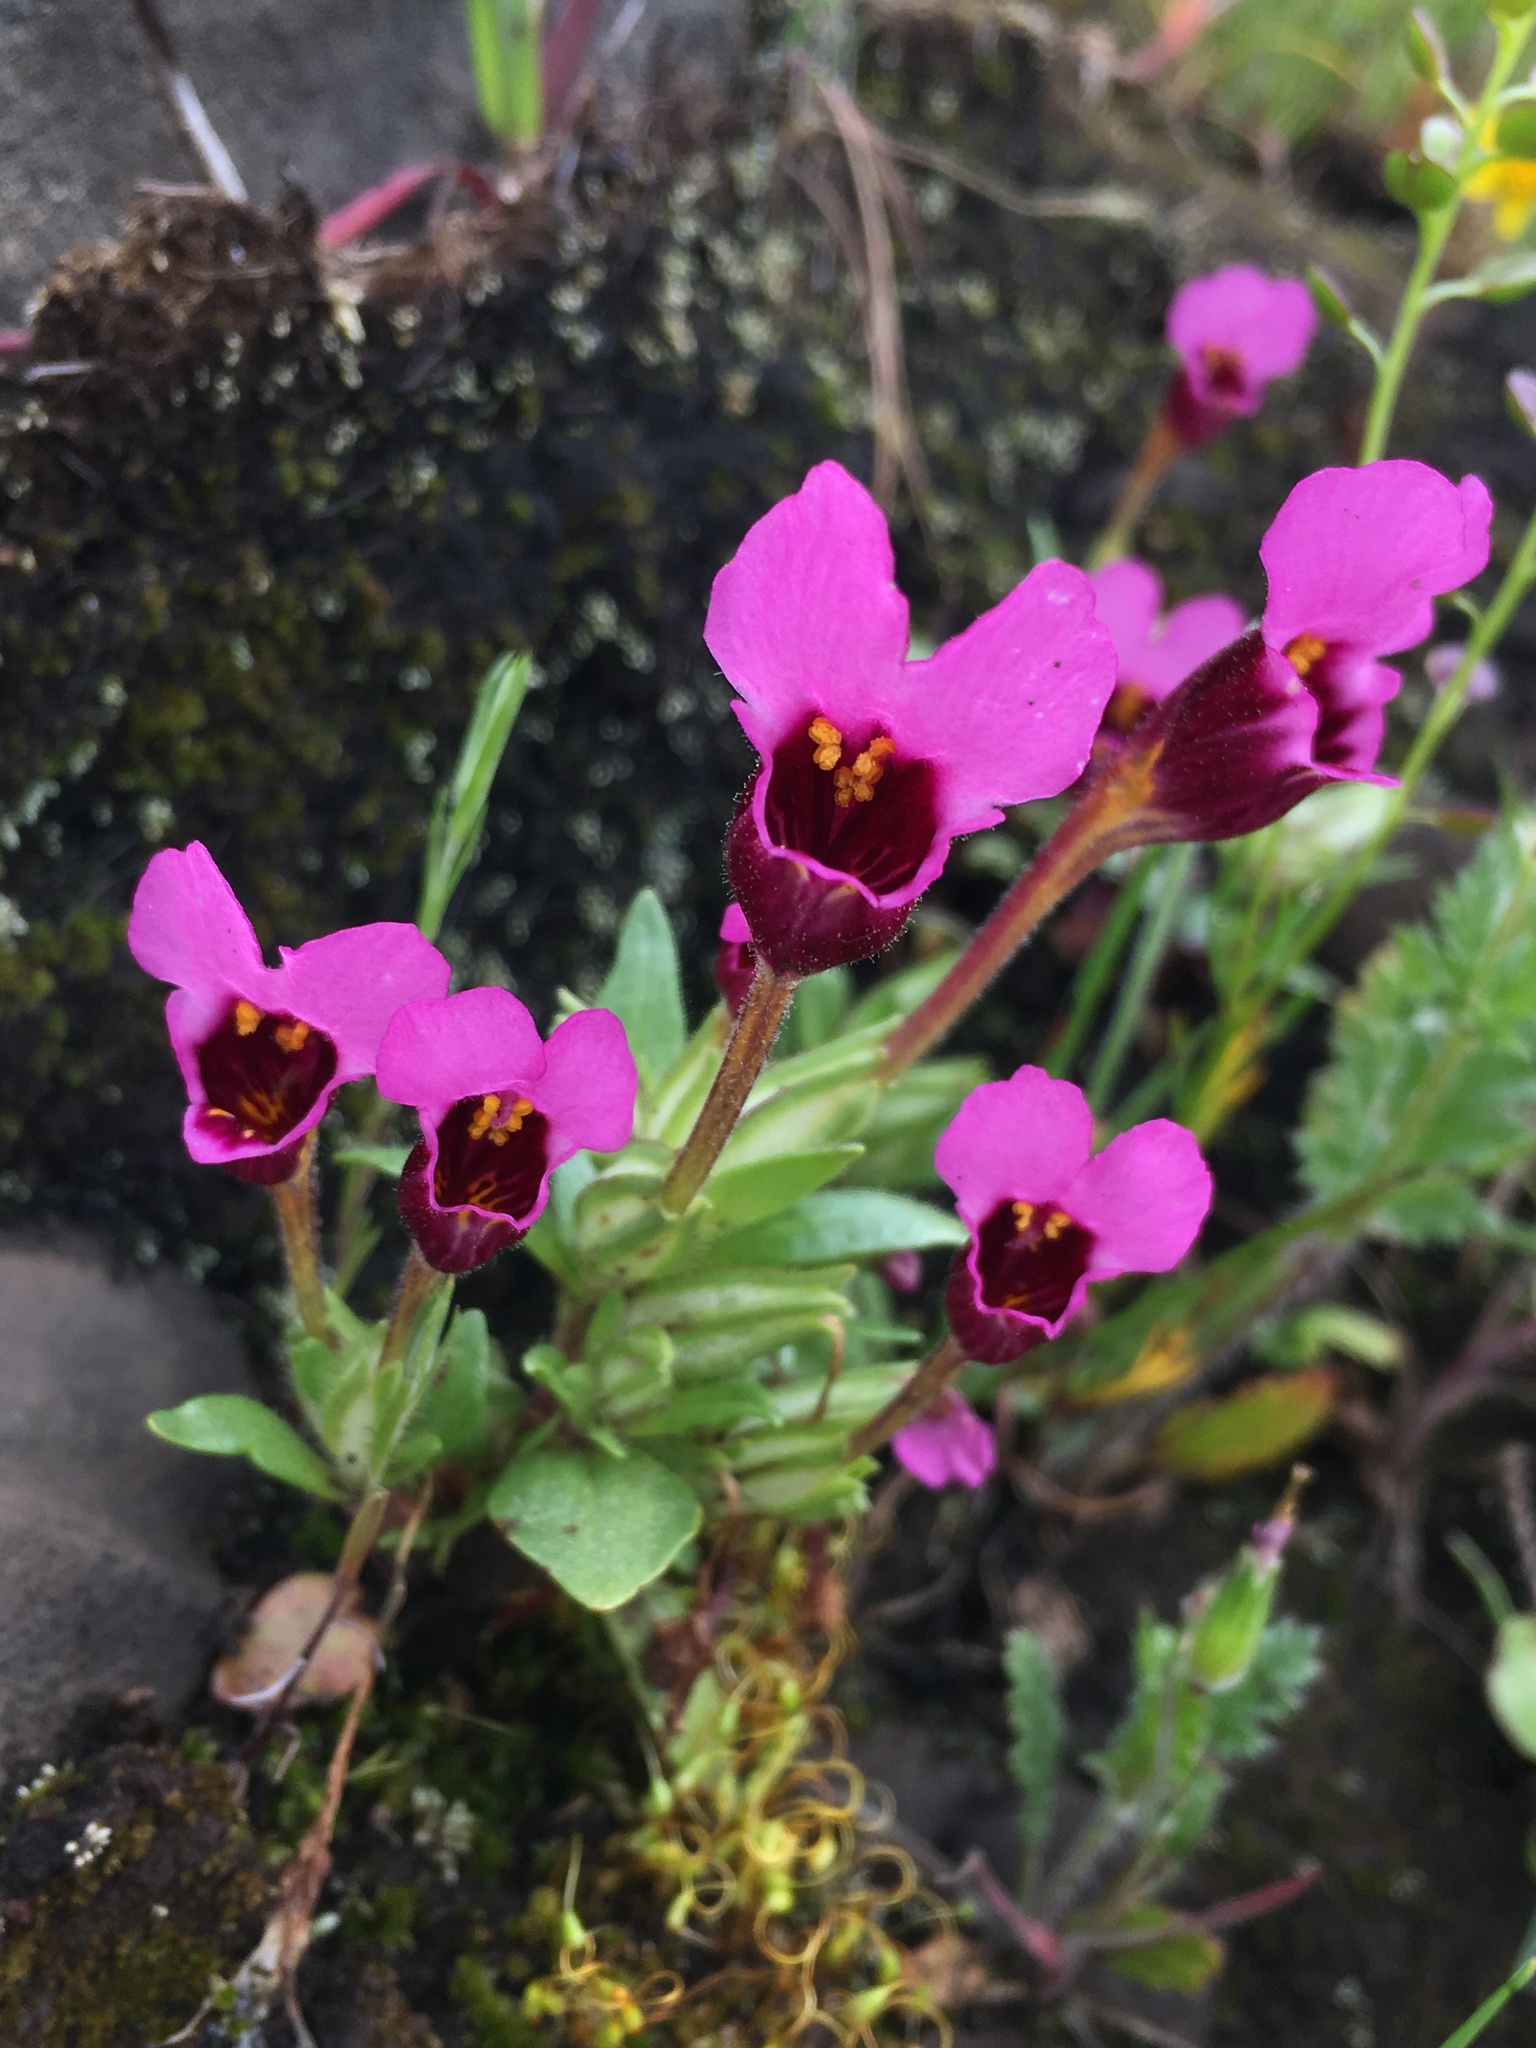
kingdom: Plantae
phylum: Tracheophyta
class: Magnoliopsida
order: Lamiales
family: Phrymaceae
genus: Diplacus
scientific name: Diplacus douglasii
